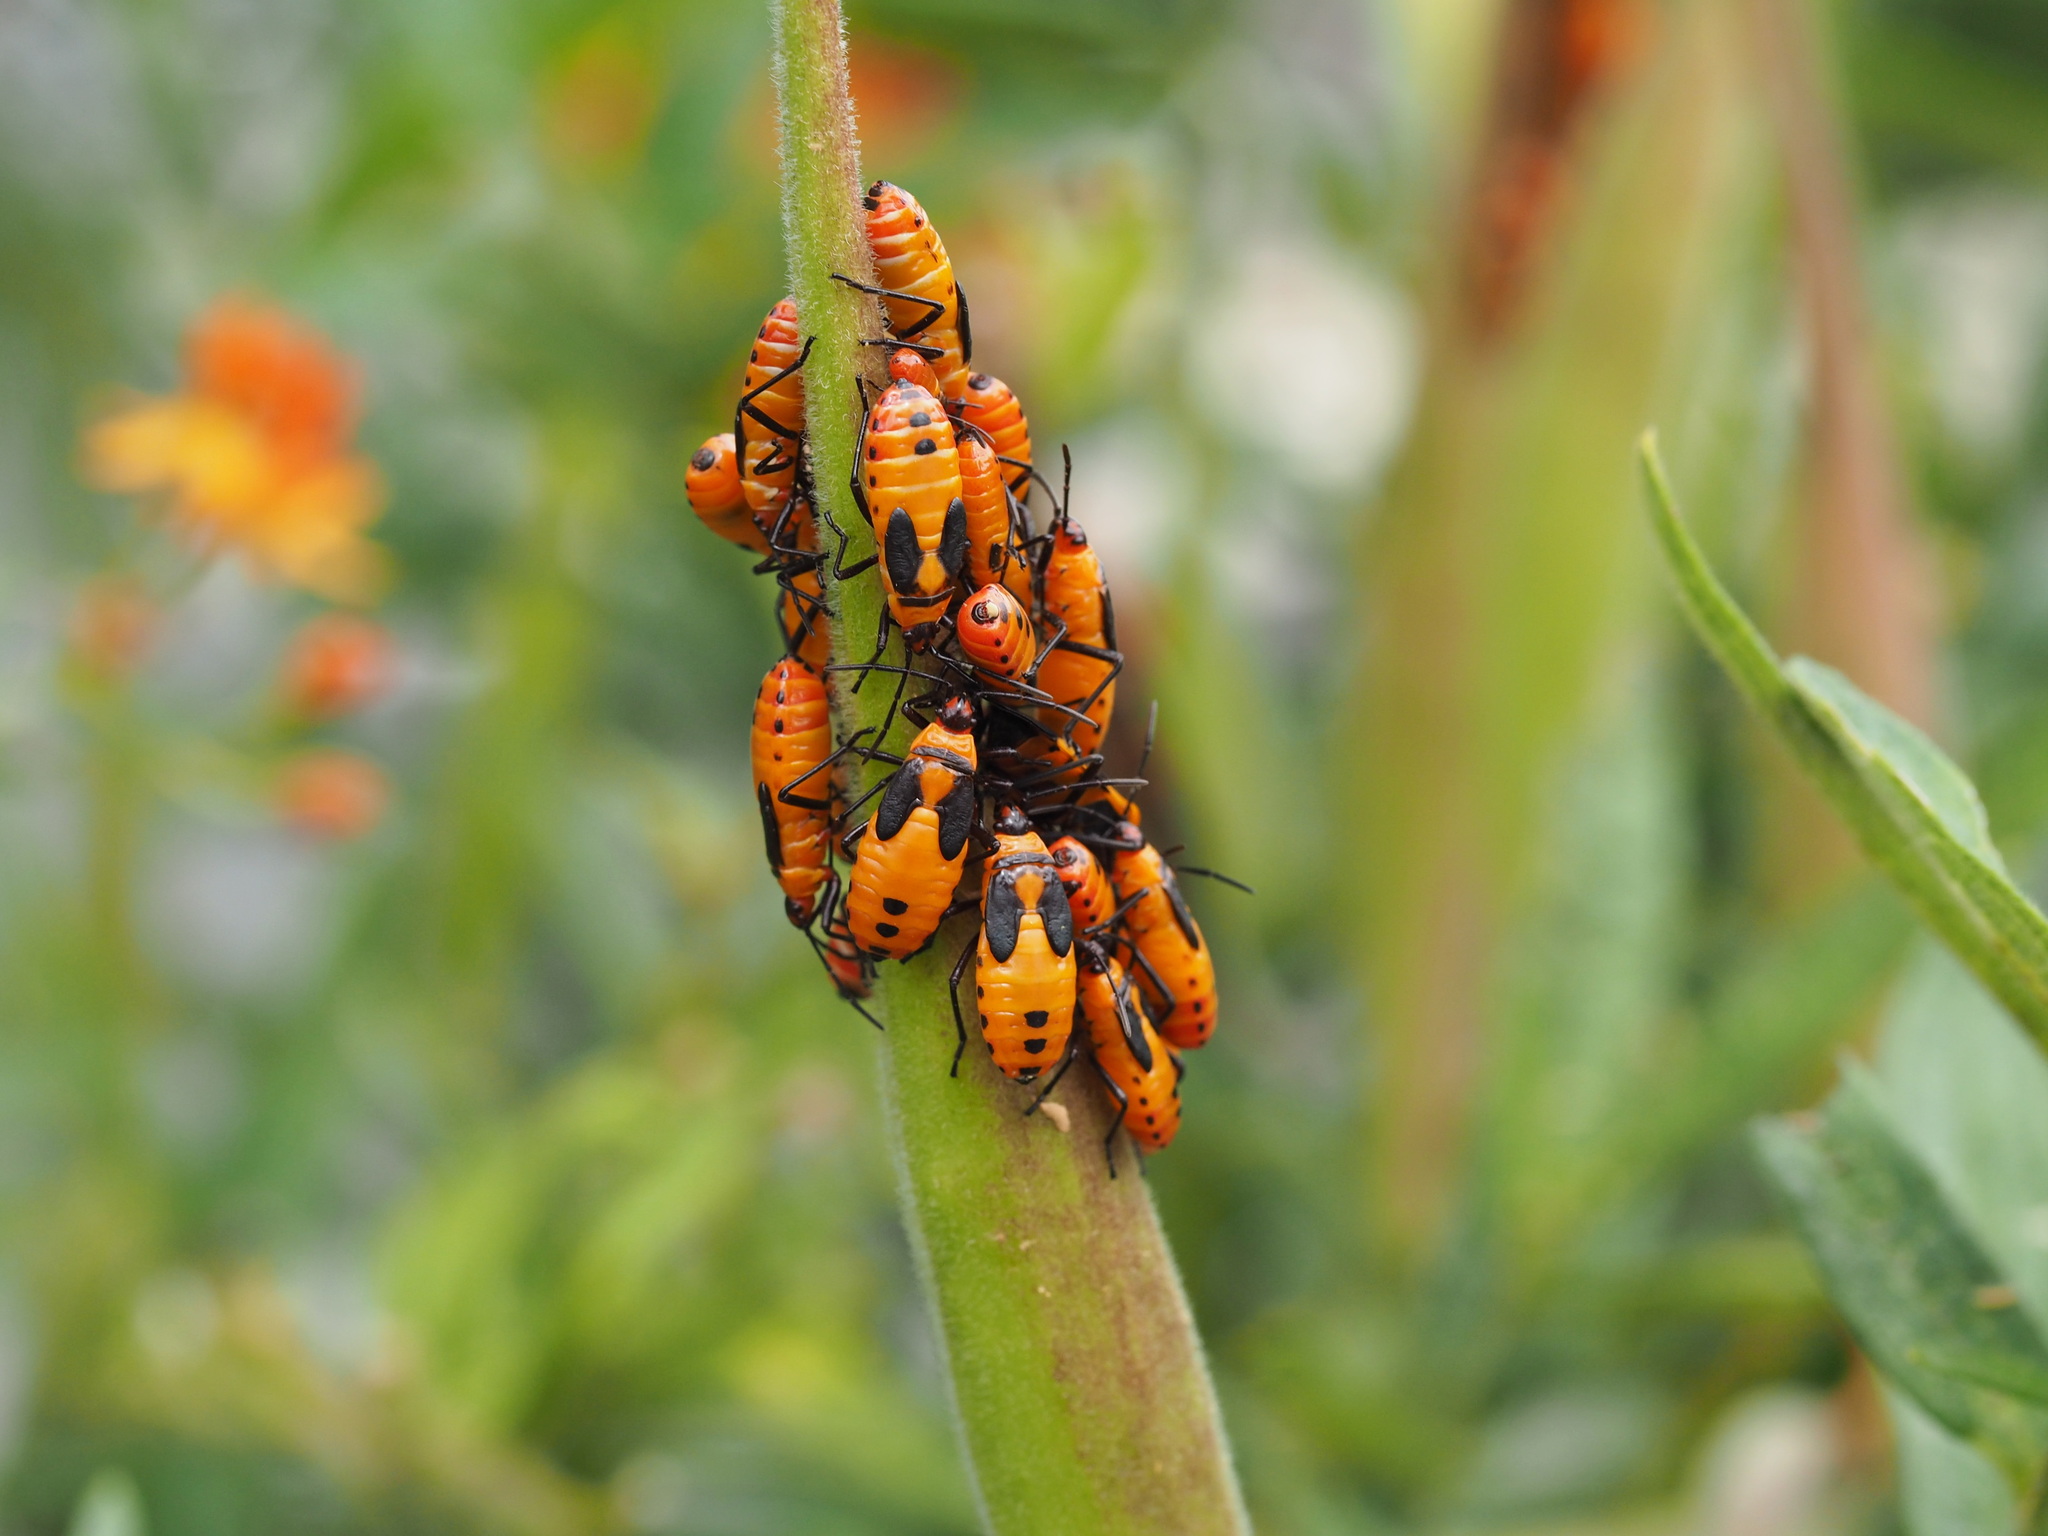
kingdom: Animalia
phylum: Arthropoda
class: Insecta
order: Hemiptera
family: Lygaeidae
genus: Oncopeltus
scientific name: Oncopeltus fasciatus
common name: Large milkweed bug
